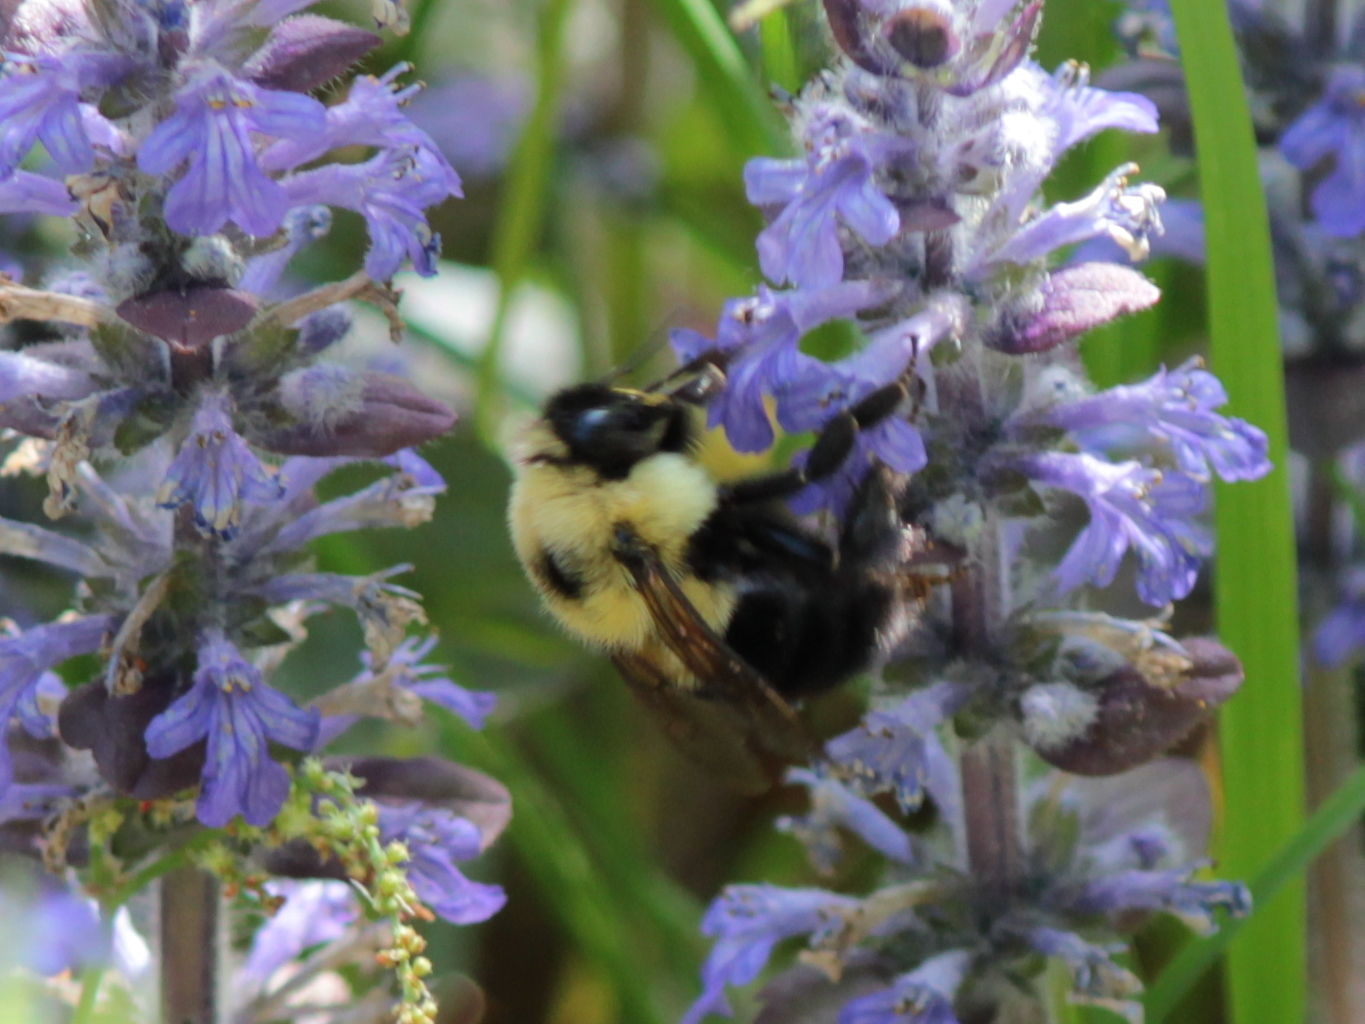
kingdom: Animalia
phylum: Arthropoda
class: Insecta
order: Hymenoptera
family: Apidae
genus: Bombus
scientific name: Bombus bimaculatus
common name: Two-spotted bumble bee
